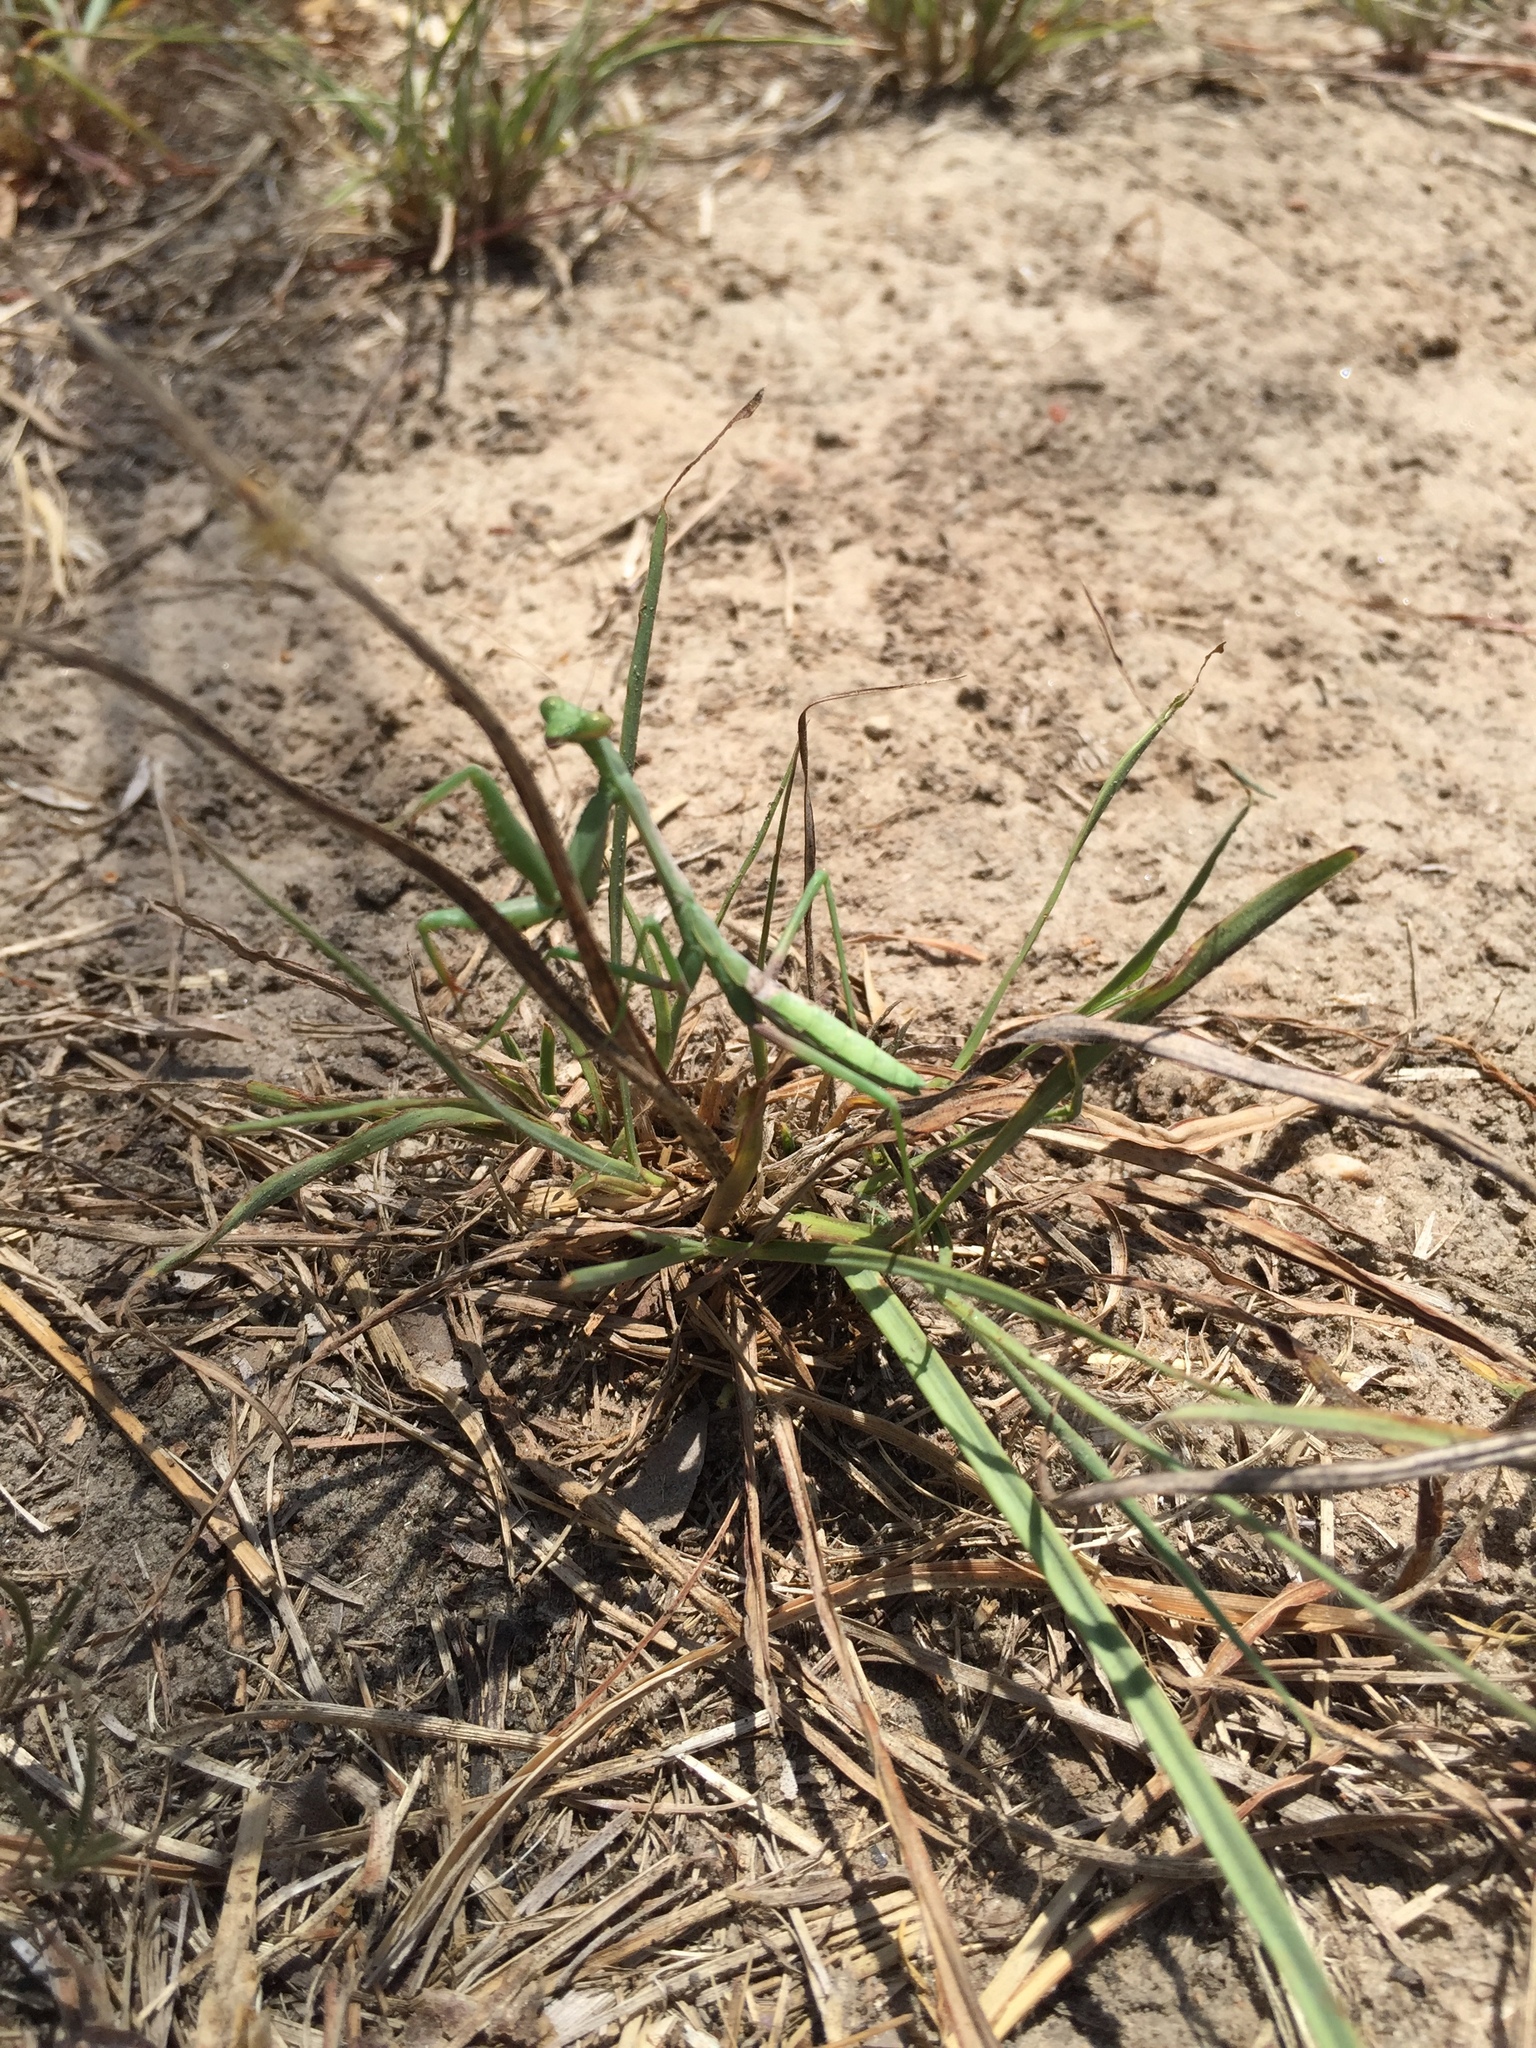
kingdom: Animalia
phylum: Arthropoda
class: Insecta
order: Mantodea
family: Mantidae
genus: Stagmomantis
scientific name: Stagmomantis carolina
